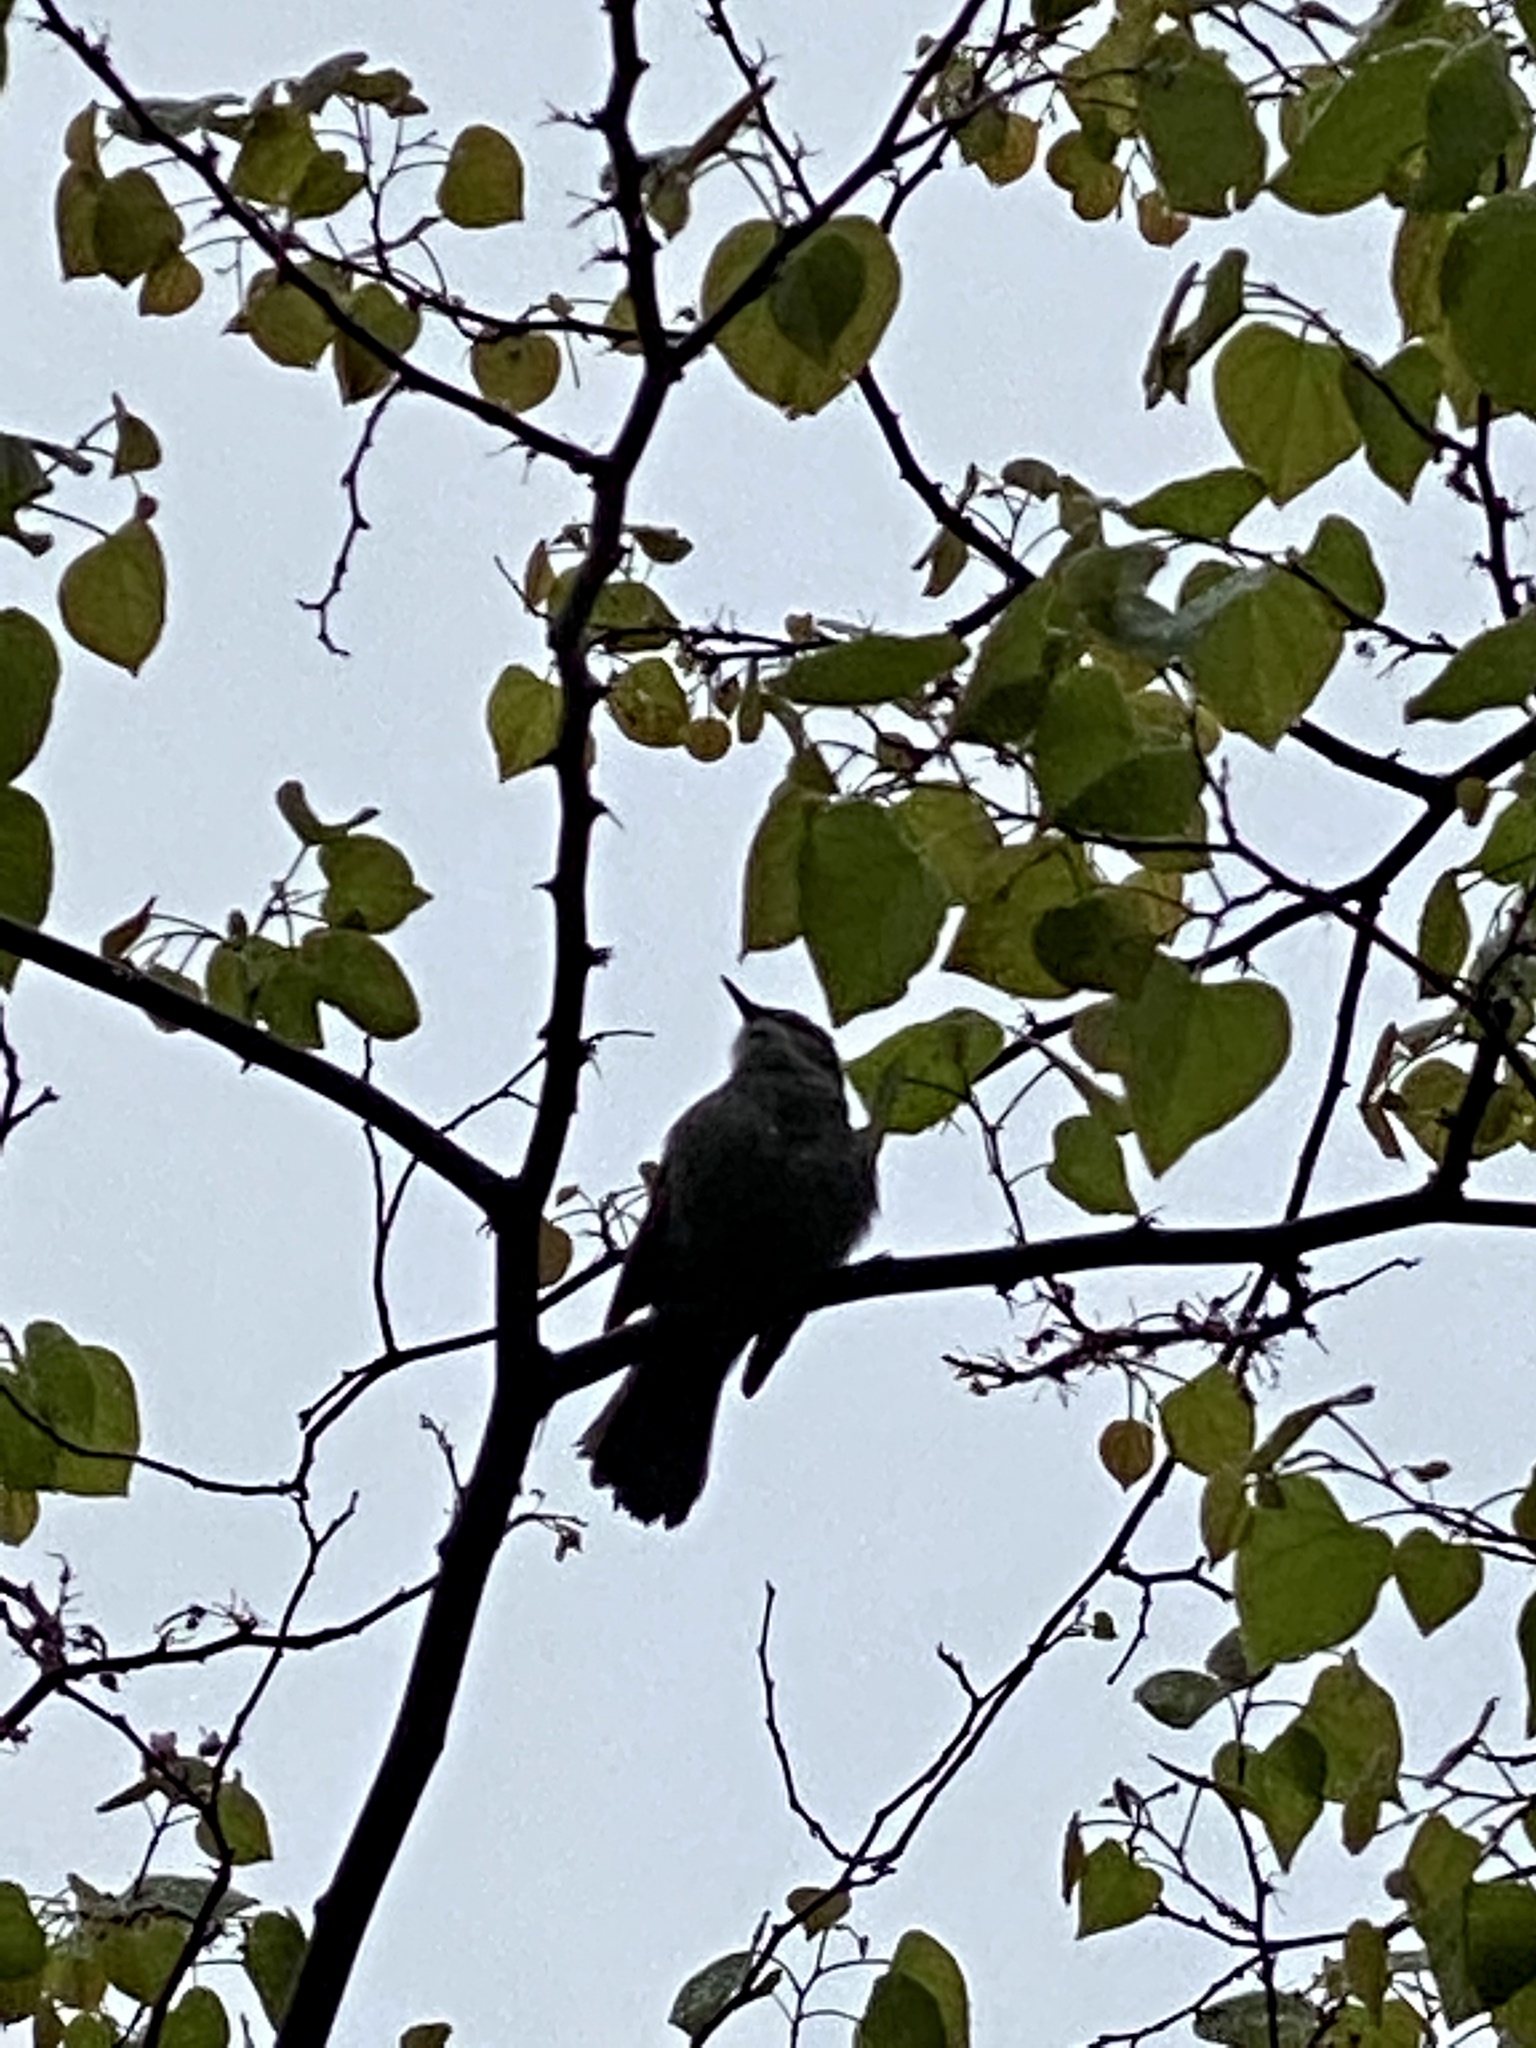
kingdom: Animalia
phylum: Chordata
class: Aves
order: Passeriformes
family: Mimidae
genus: Dumetella
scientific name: Dumetella carolinensis
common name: Gray catbird
